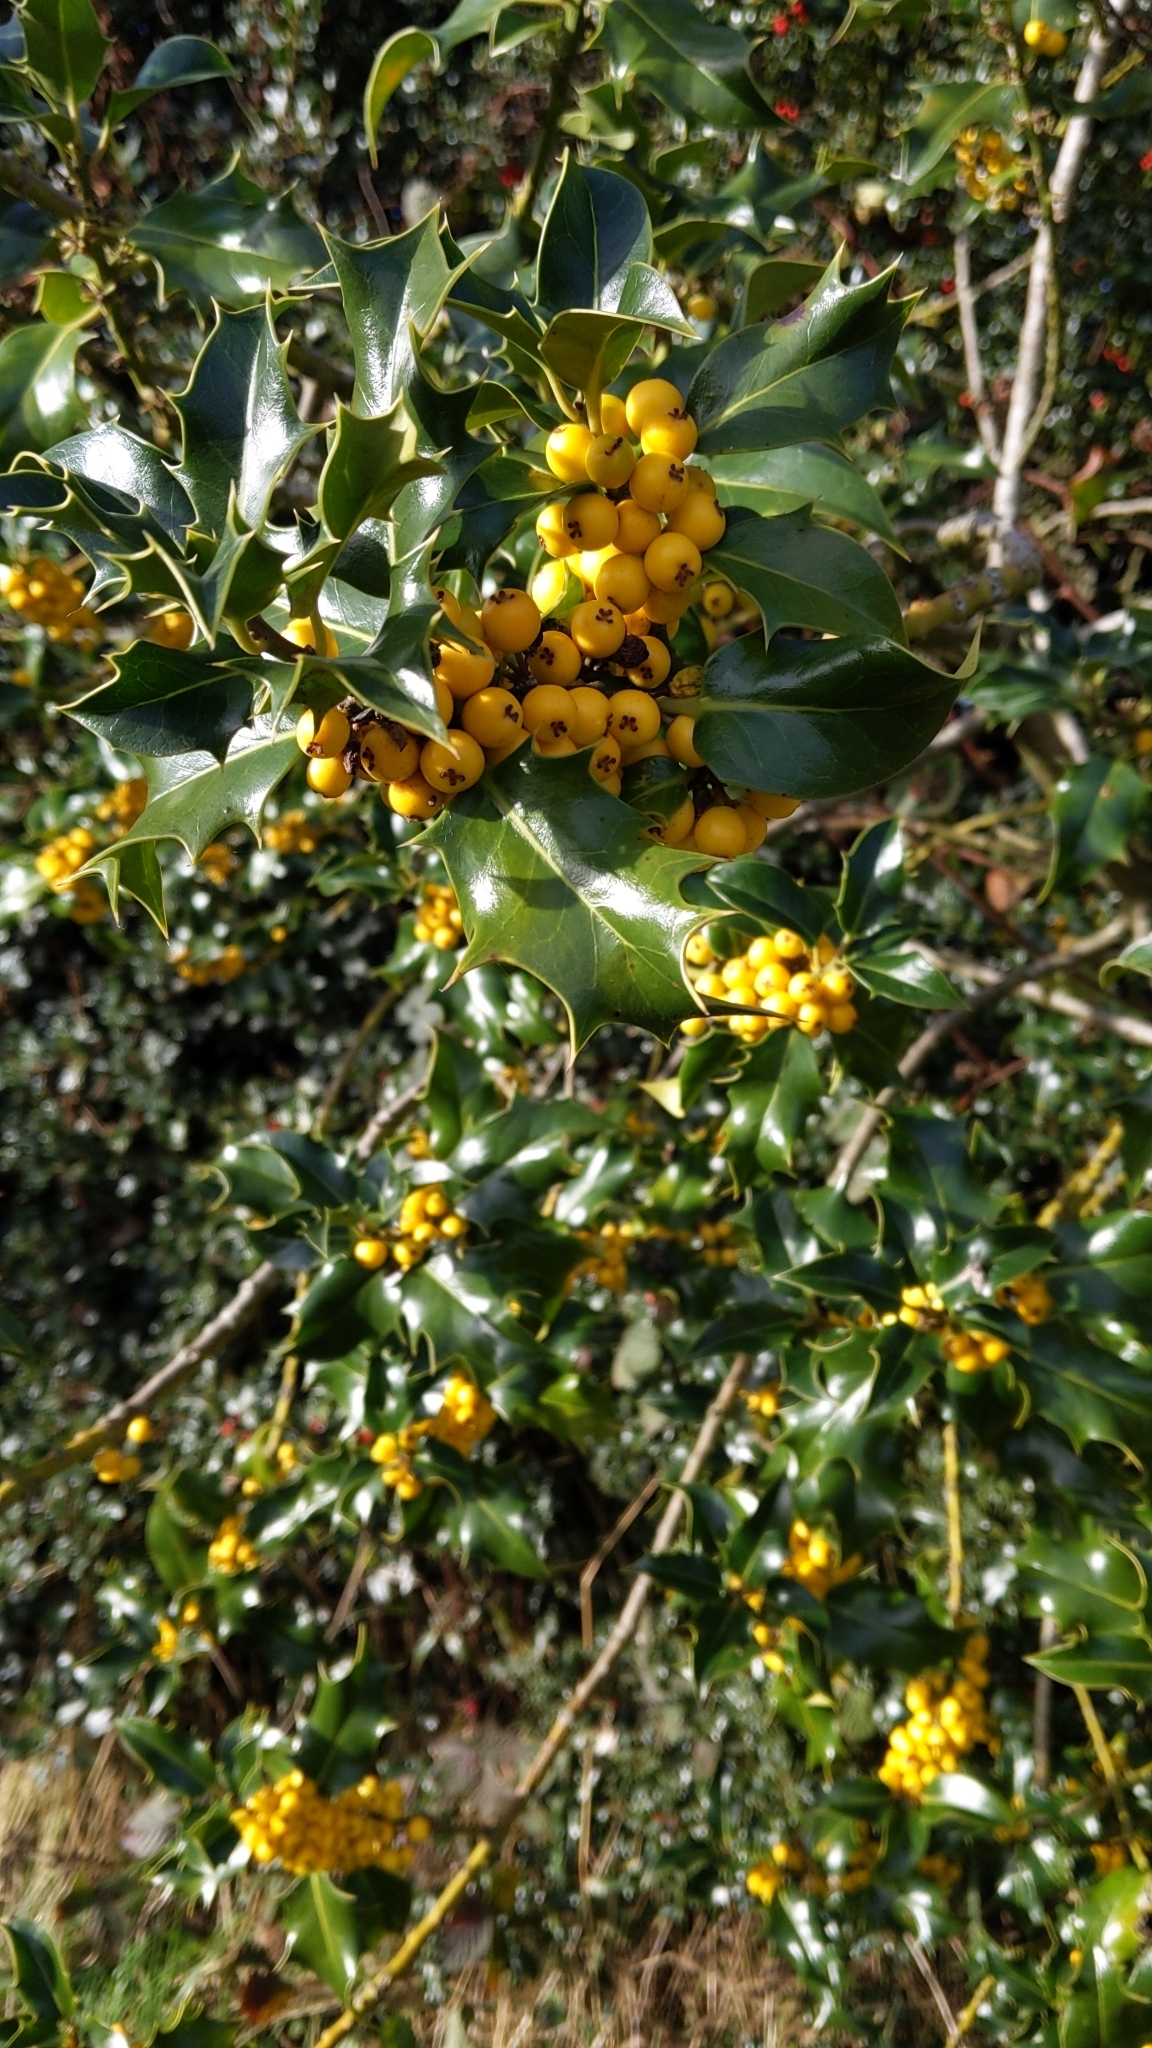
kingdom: Plantae
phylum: Tracheophyta
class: Magnoliopsida
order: Aquifoliales
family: Aquifoliaceae
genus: Ilex
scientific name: Ilex aquifolium
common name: English holly
